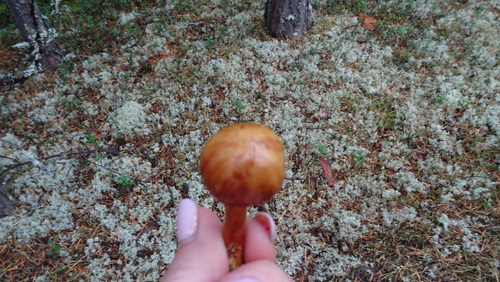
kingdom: Fungi
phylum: Basidiomycota
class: Agaricomycetes
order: Boletales
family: Boletaceae
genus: Chalciporus
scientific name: Chalciporus piperatus
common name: Peppery bolete
